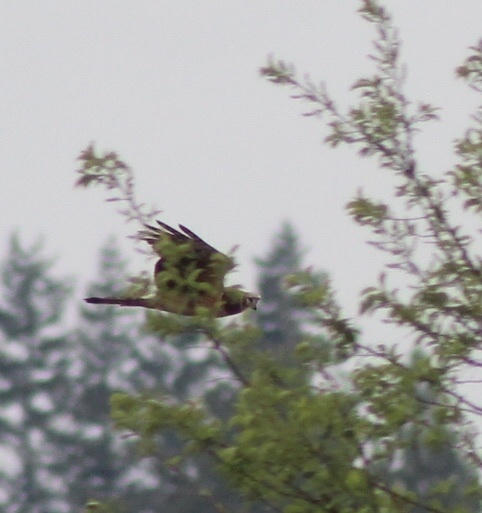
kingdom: Animalia
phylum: Chordata
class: Aves
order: Accipitriformes
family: Accipitridae
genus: Circus
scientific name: Circus cyaneus
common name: Hen harrier
